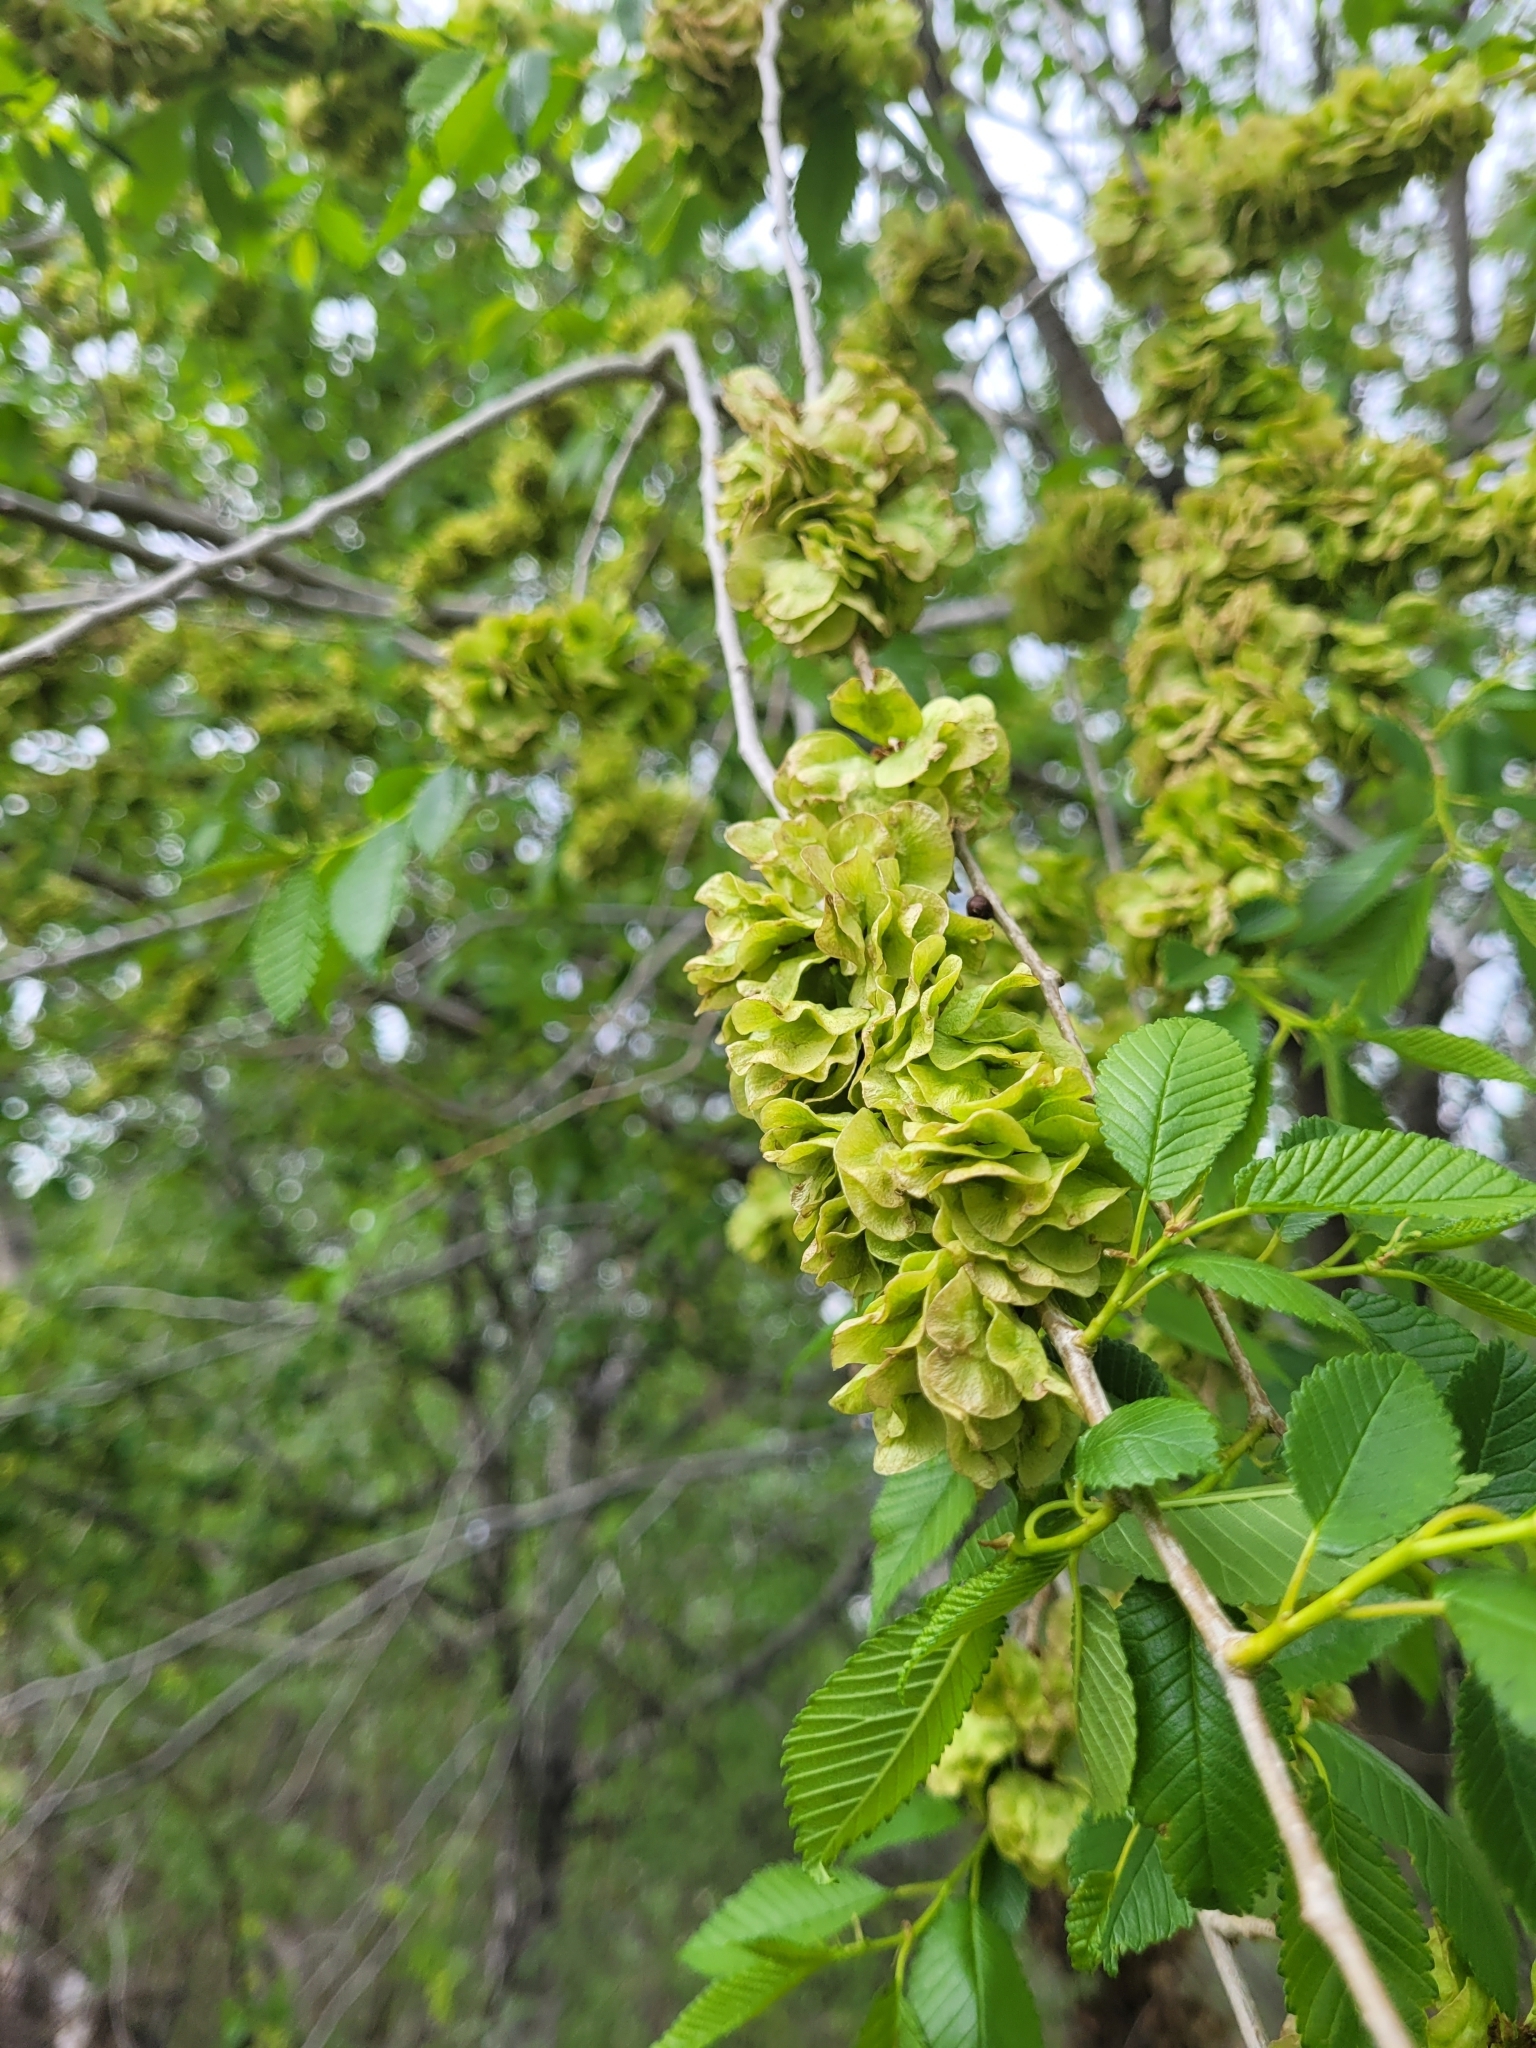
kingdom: Plantae
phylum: Tracheophyta
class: Magnoliopsida
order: Rosales
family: Ulmaceae
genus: Ulmus
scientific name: Ulmus pumila
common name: Siberian elm
